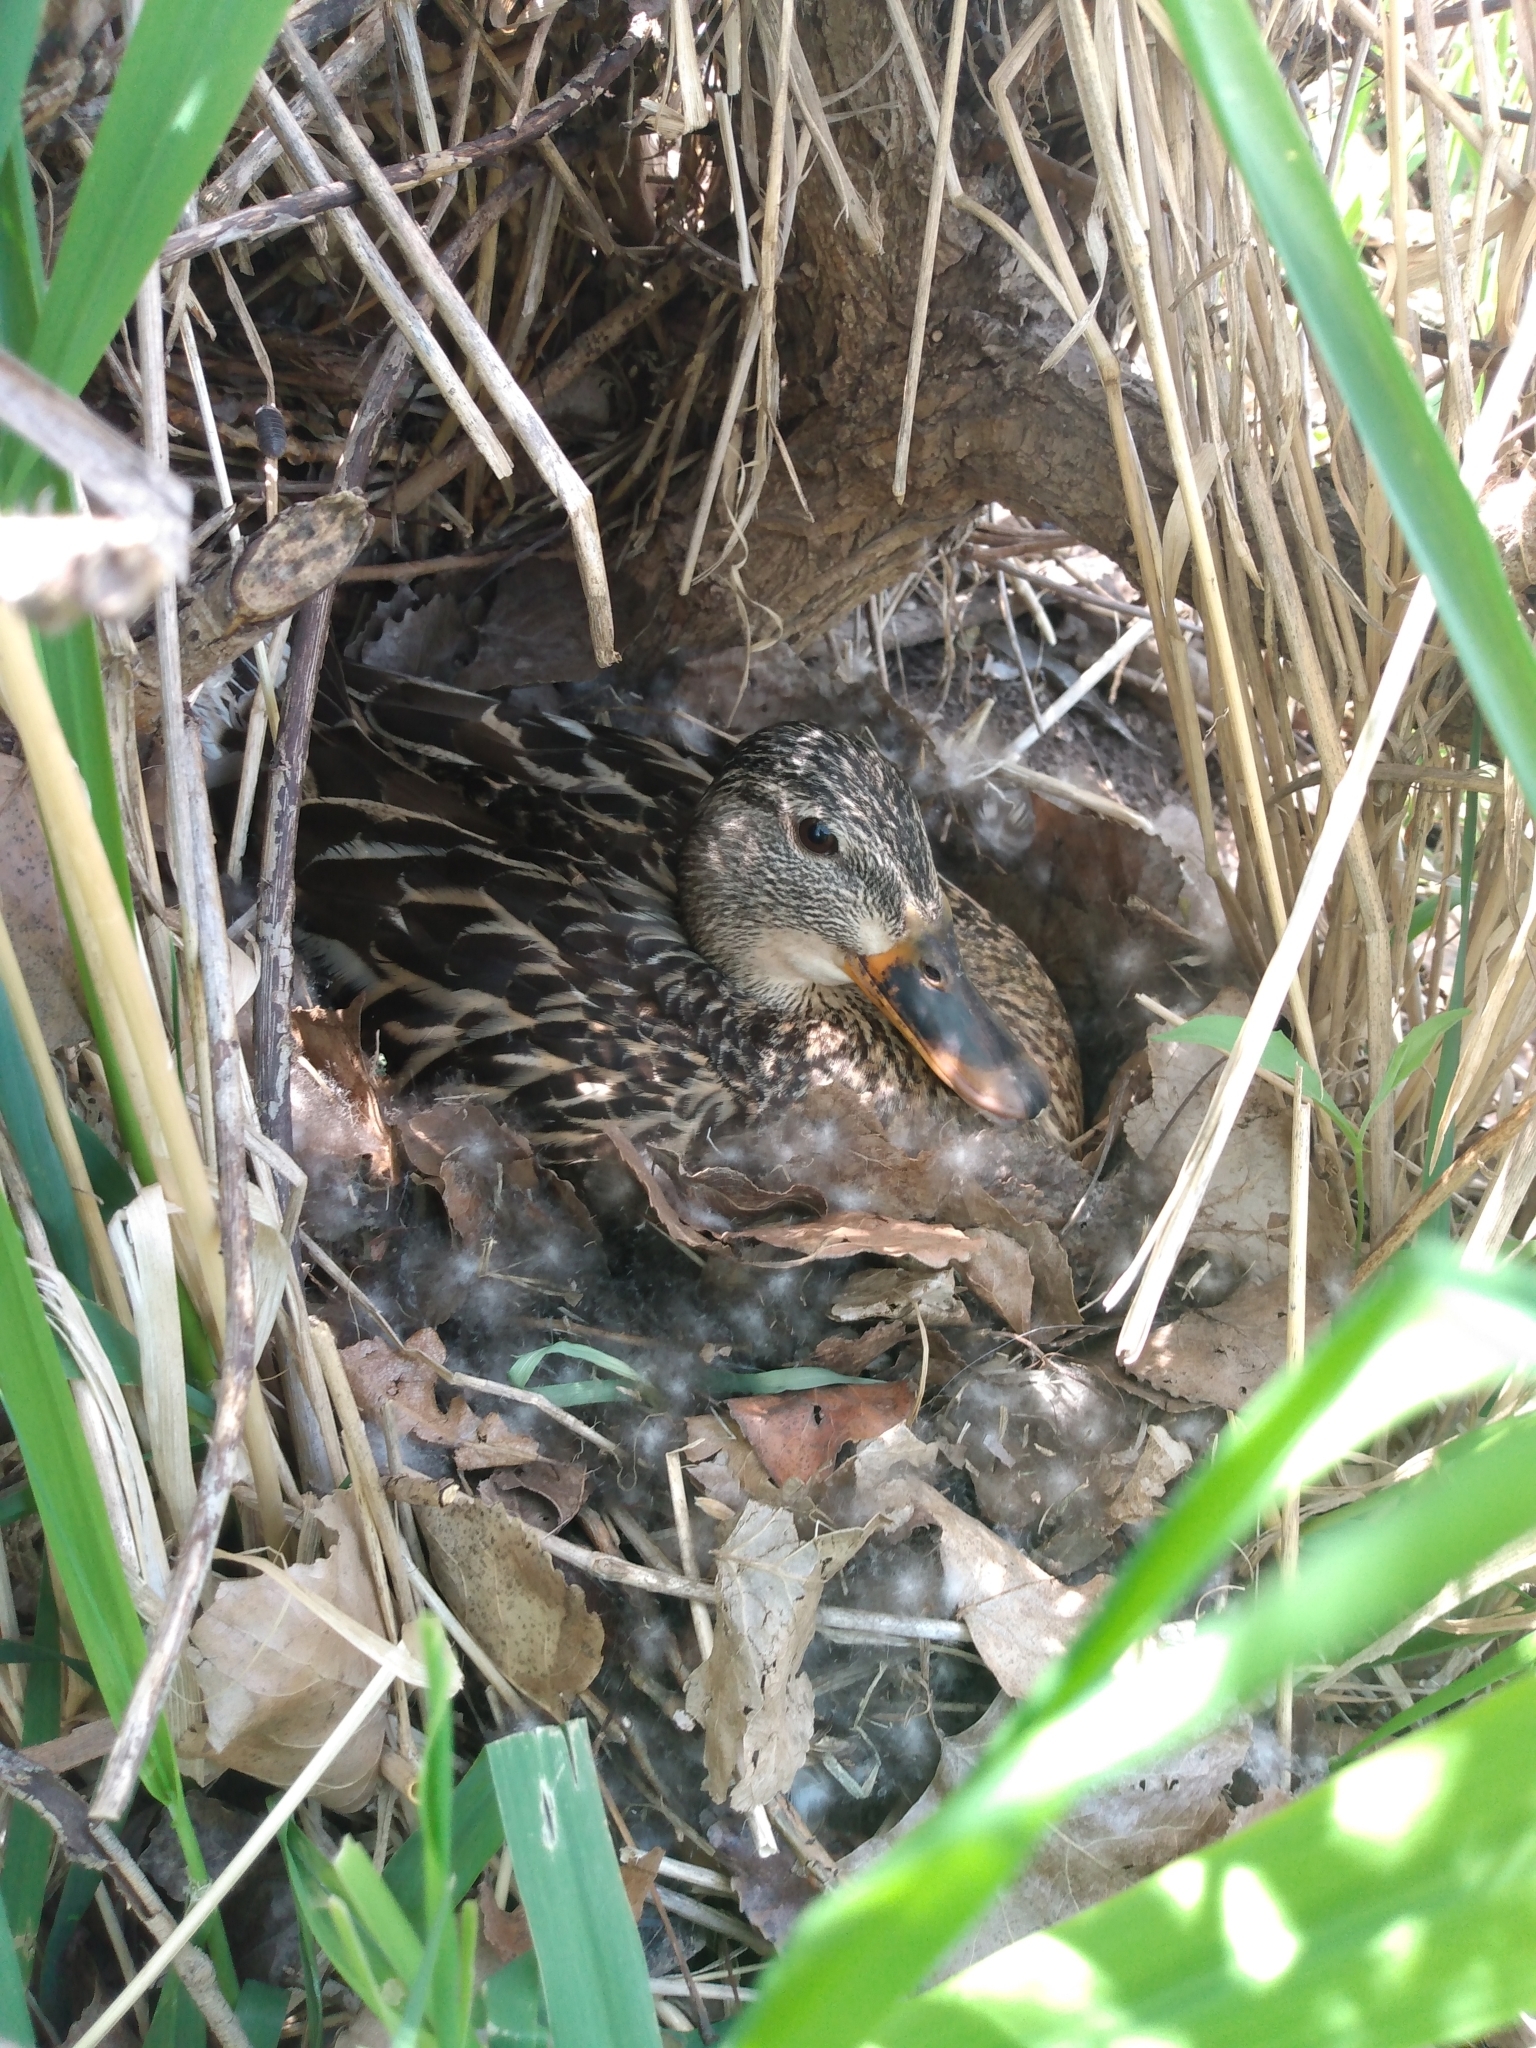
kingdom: Animalia
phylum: Chordata
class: Aves
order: Anseriformes
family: Anatidae
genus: Anas
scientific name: Anas platyrhynchos
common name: Mallard
